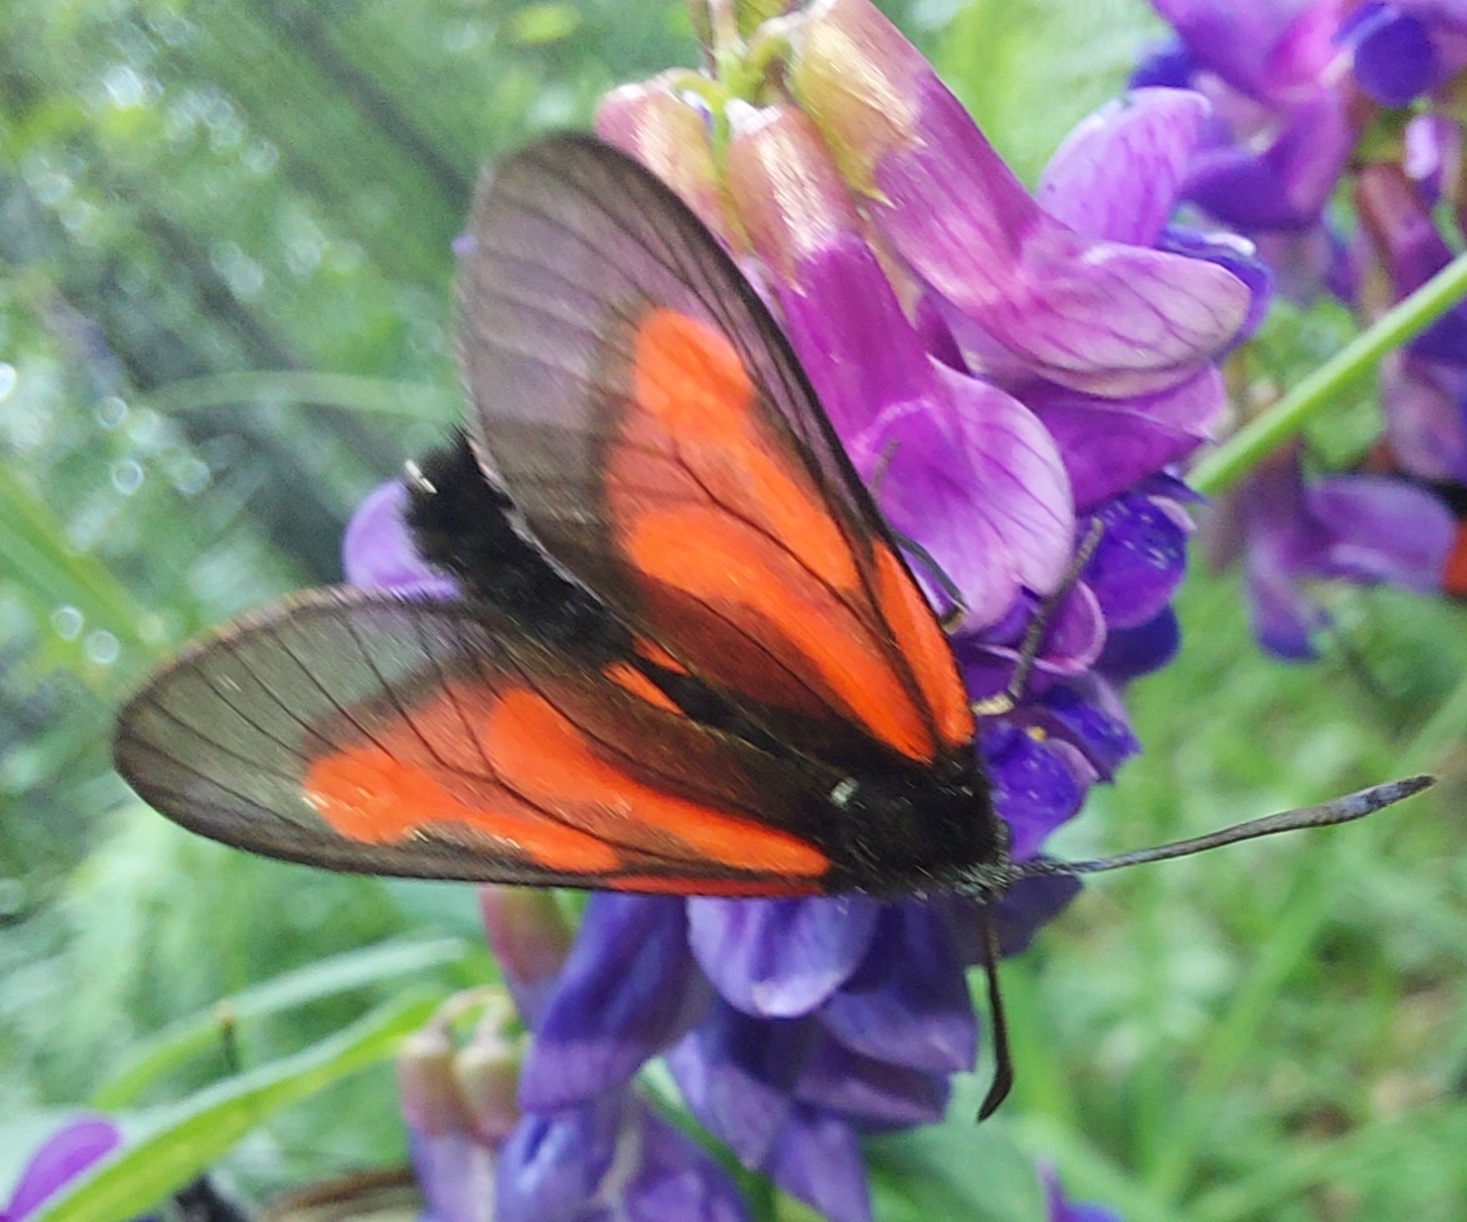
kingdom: Animalia
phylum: Arthropoda
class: Insecta
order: Lepidoptera
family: Zygaenidae
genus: Zygaena
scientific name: Zygaena osterodensis
